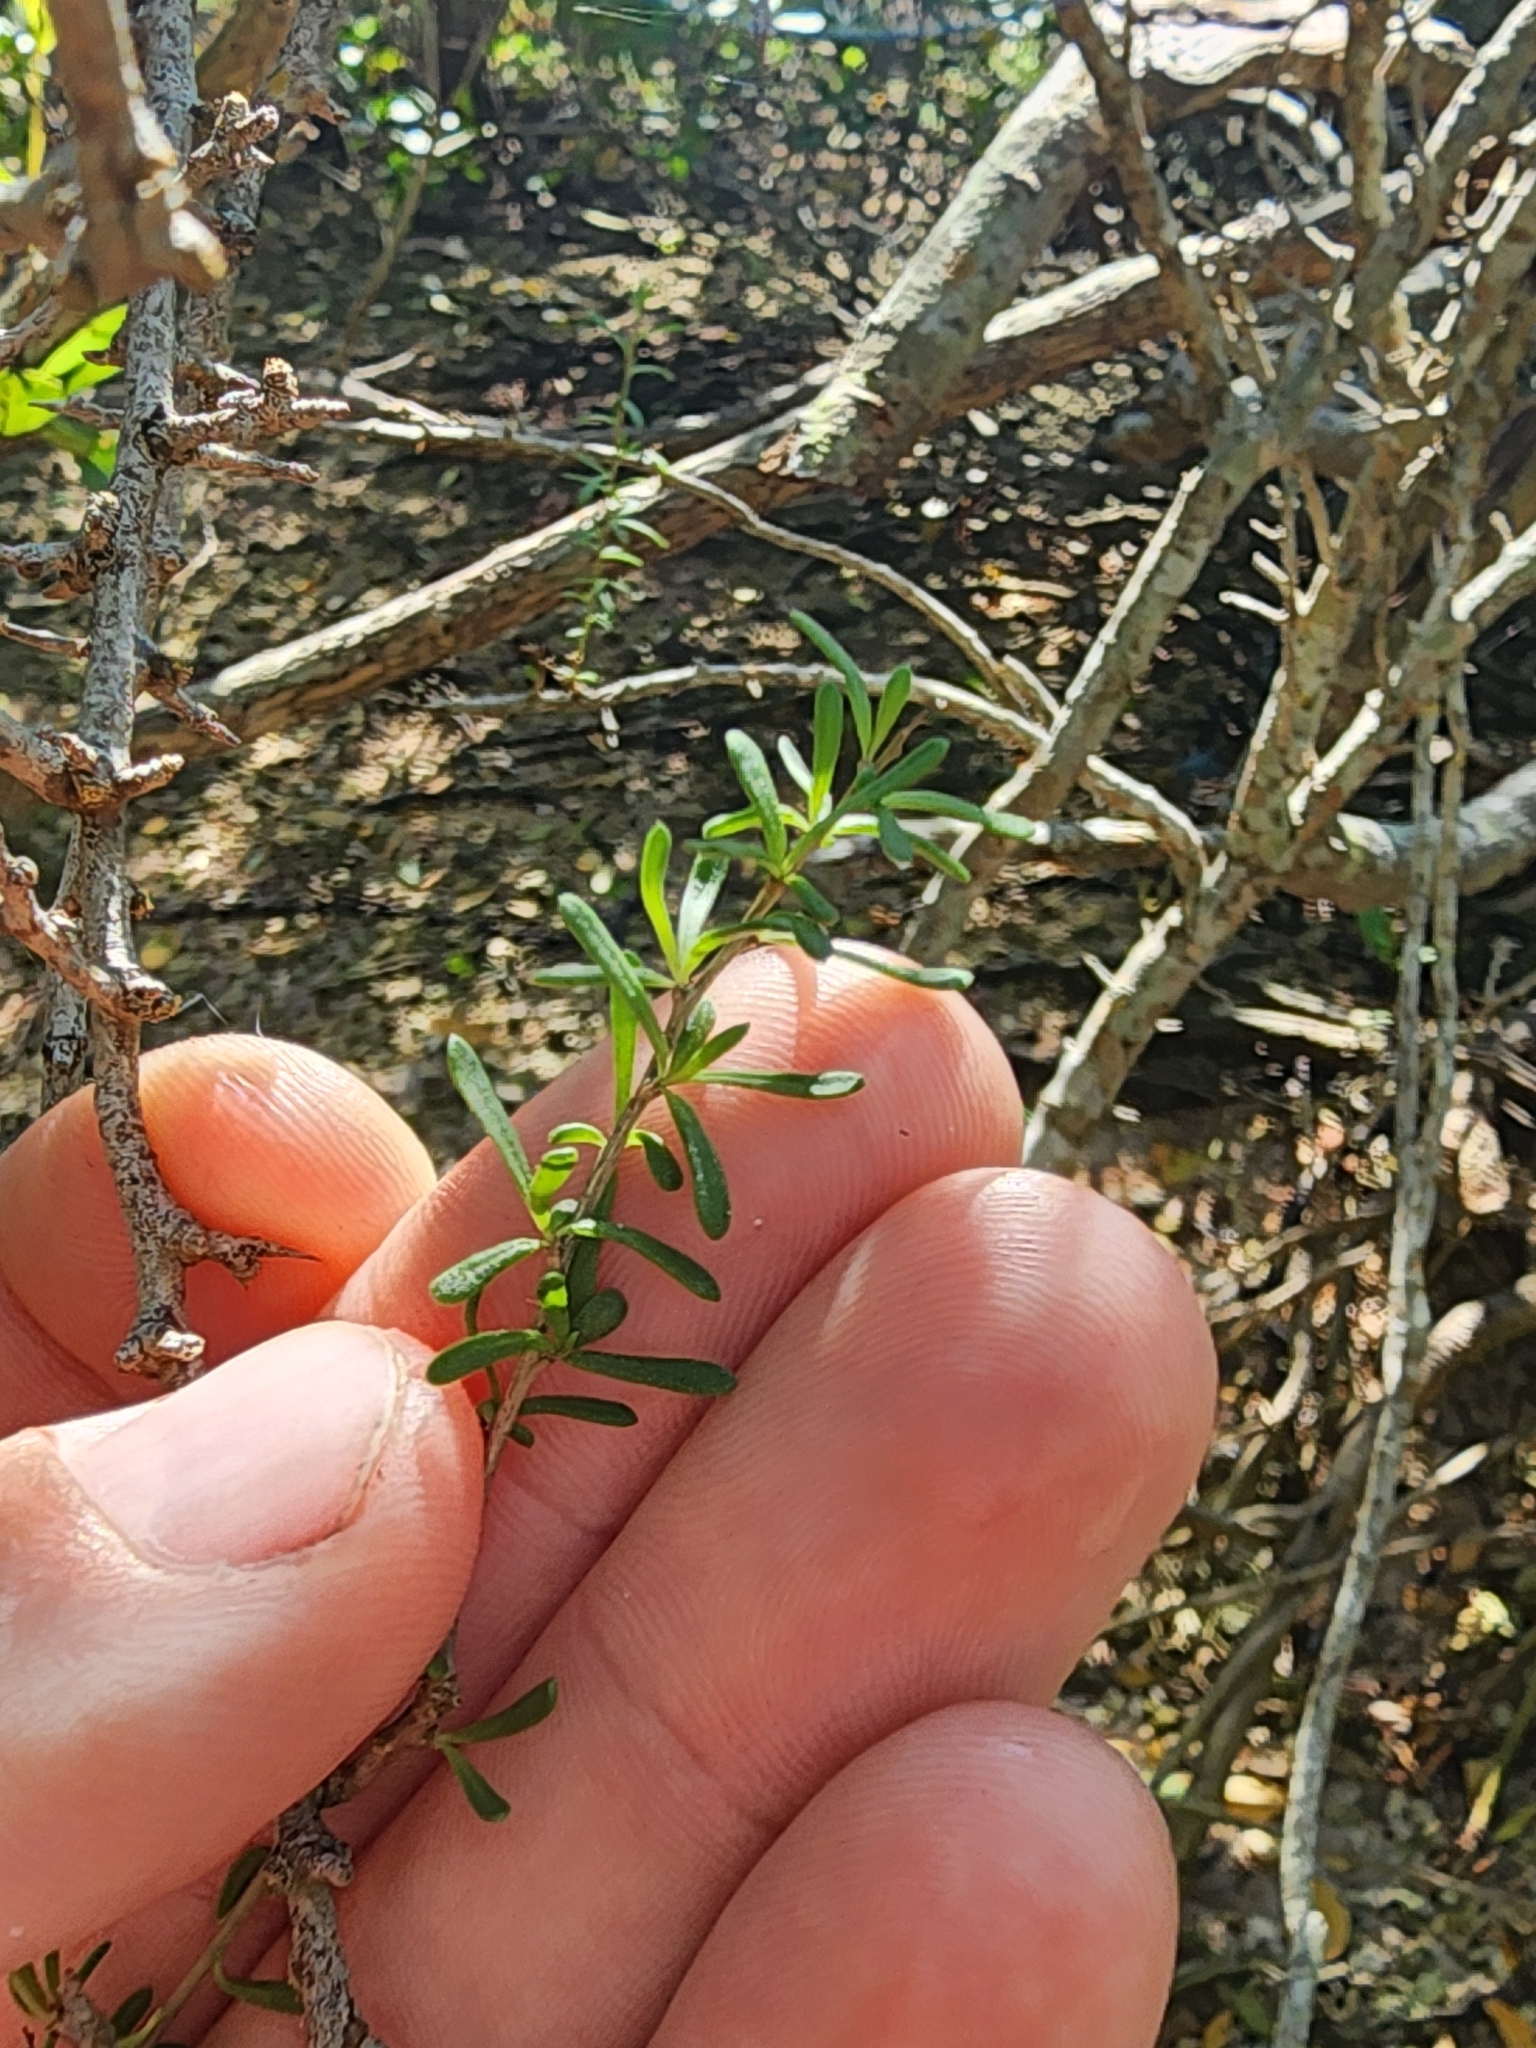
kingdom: Plantae
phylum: Tracheophyta
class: Magnoliopsida
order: Solanales
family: Solanaceae
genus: Lycium
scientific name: Lycium carolinianum
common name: Christmasberry
